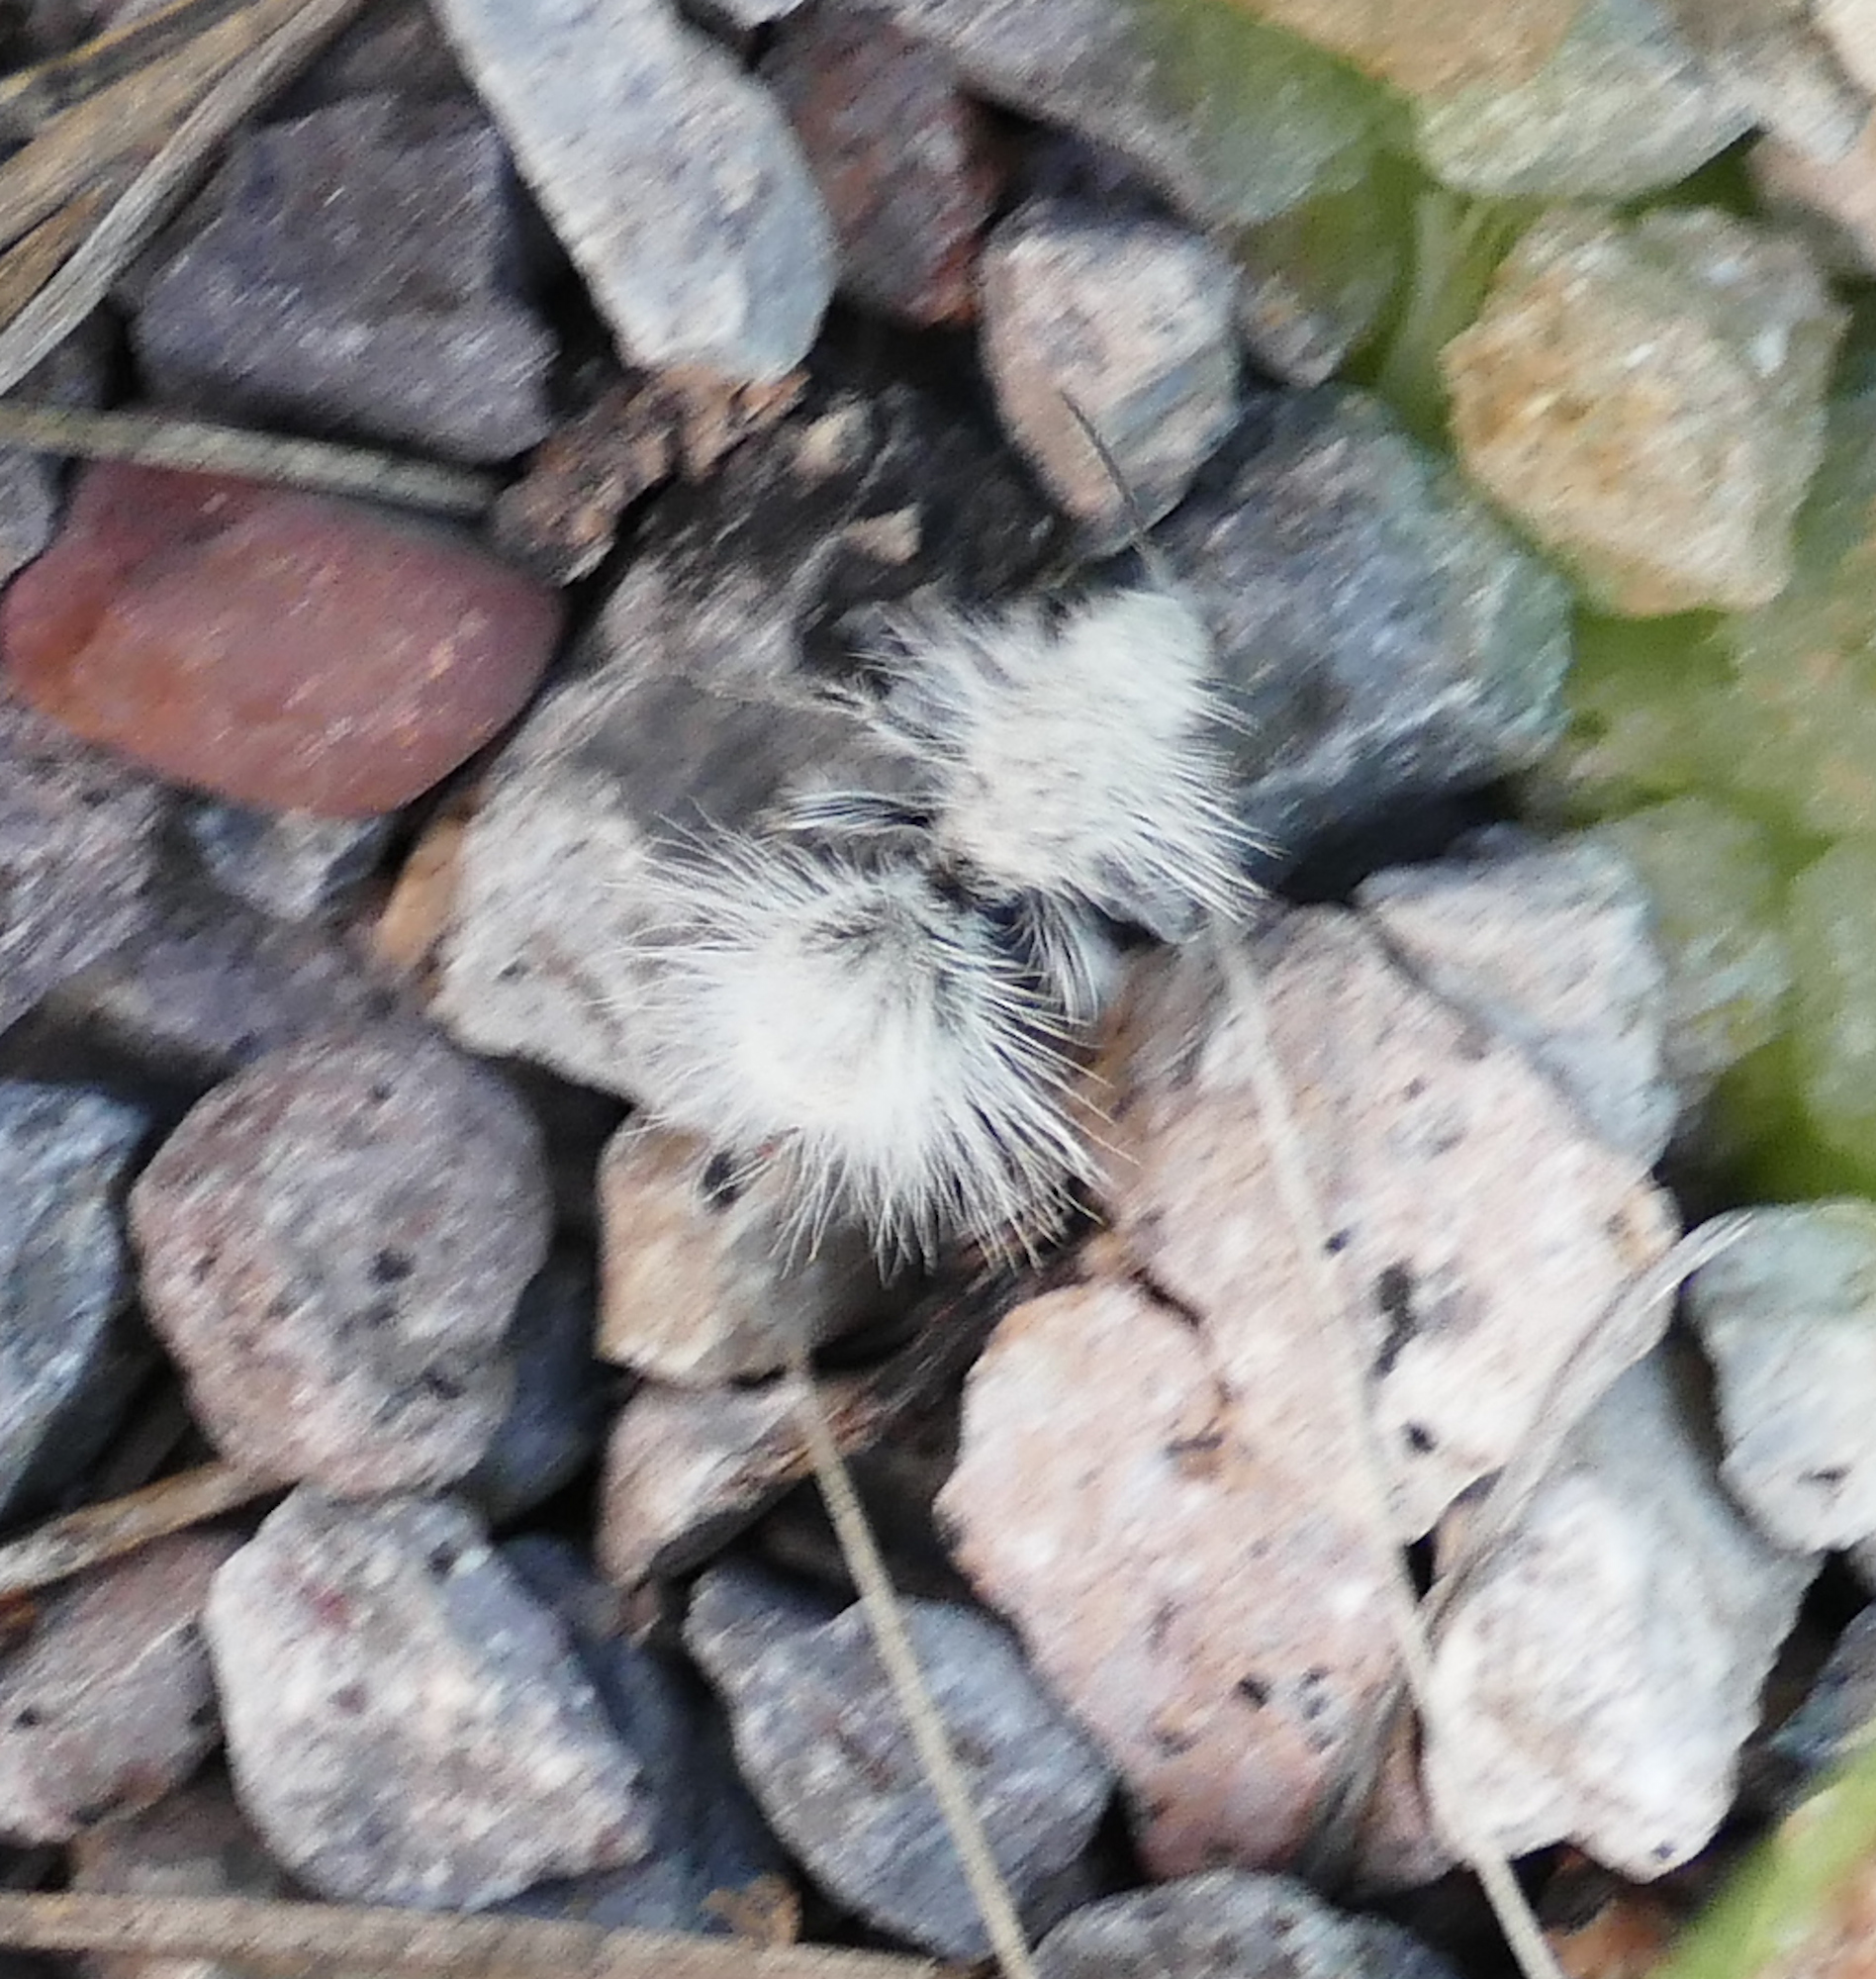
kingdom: Animalia
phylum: Arthropoda
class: Insecta
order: Hymenoptera
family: Mutillidae
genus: Dasymutilla
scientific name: Dasymutilla pseudopappus
